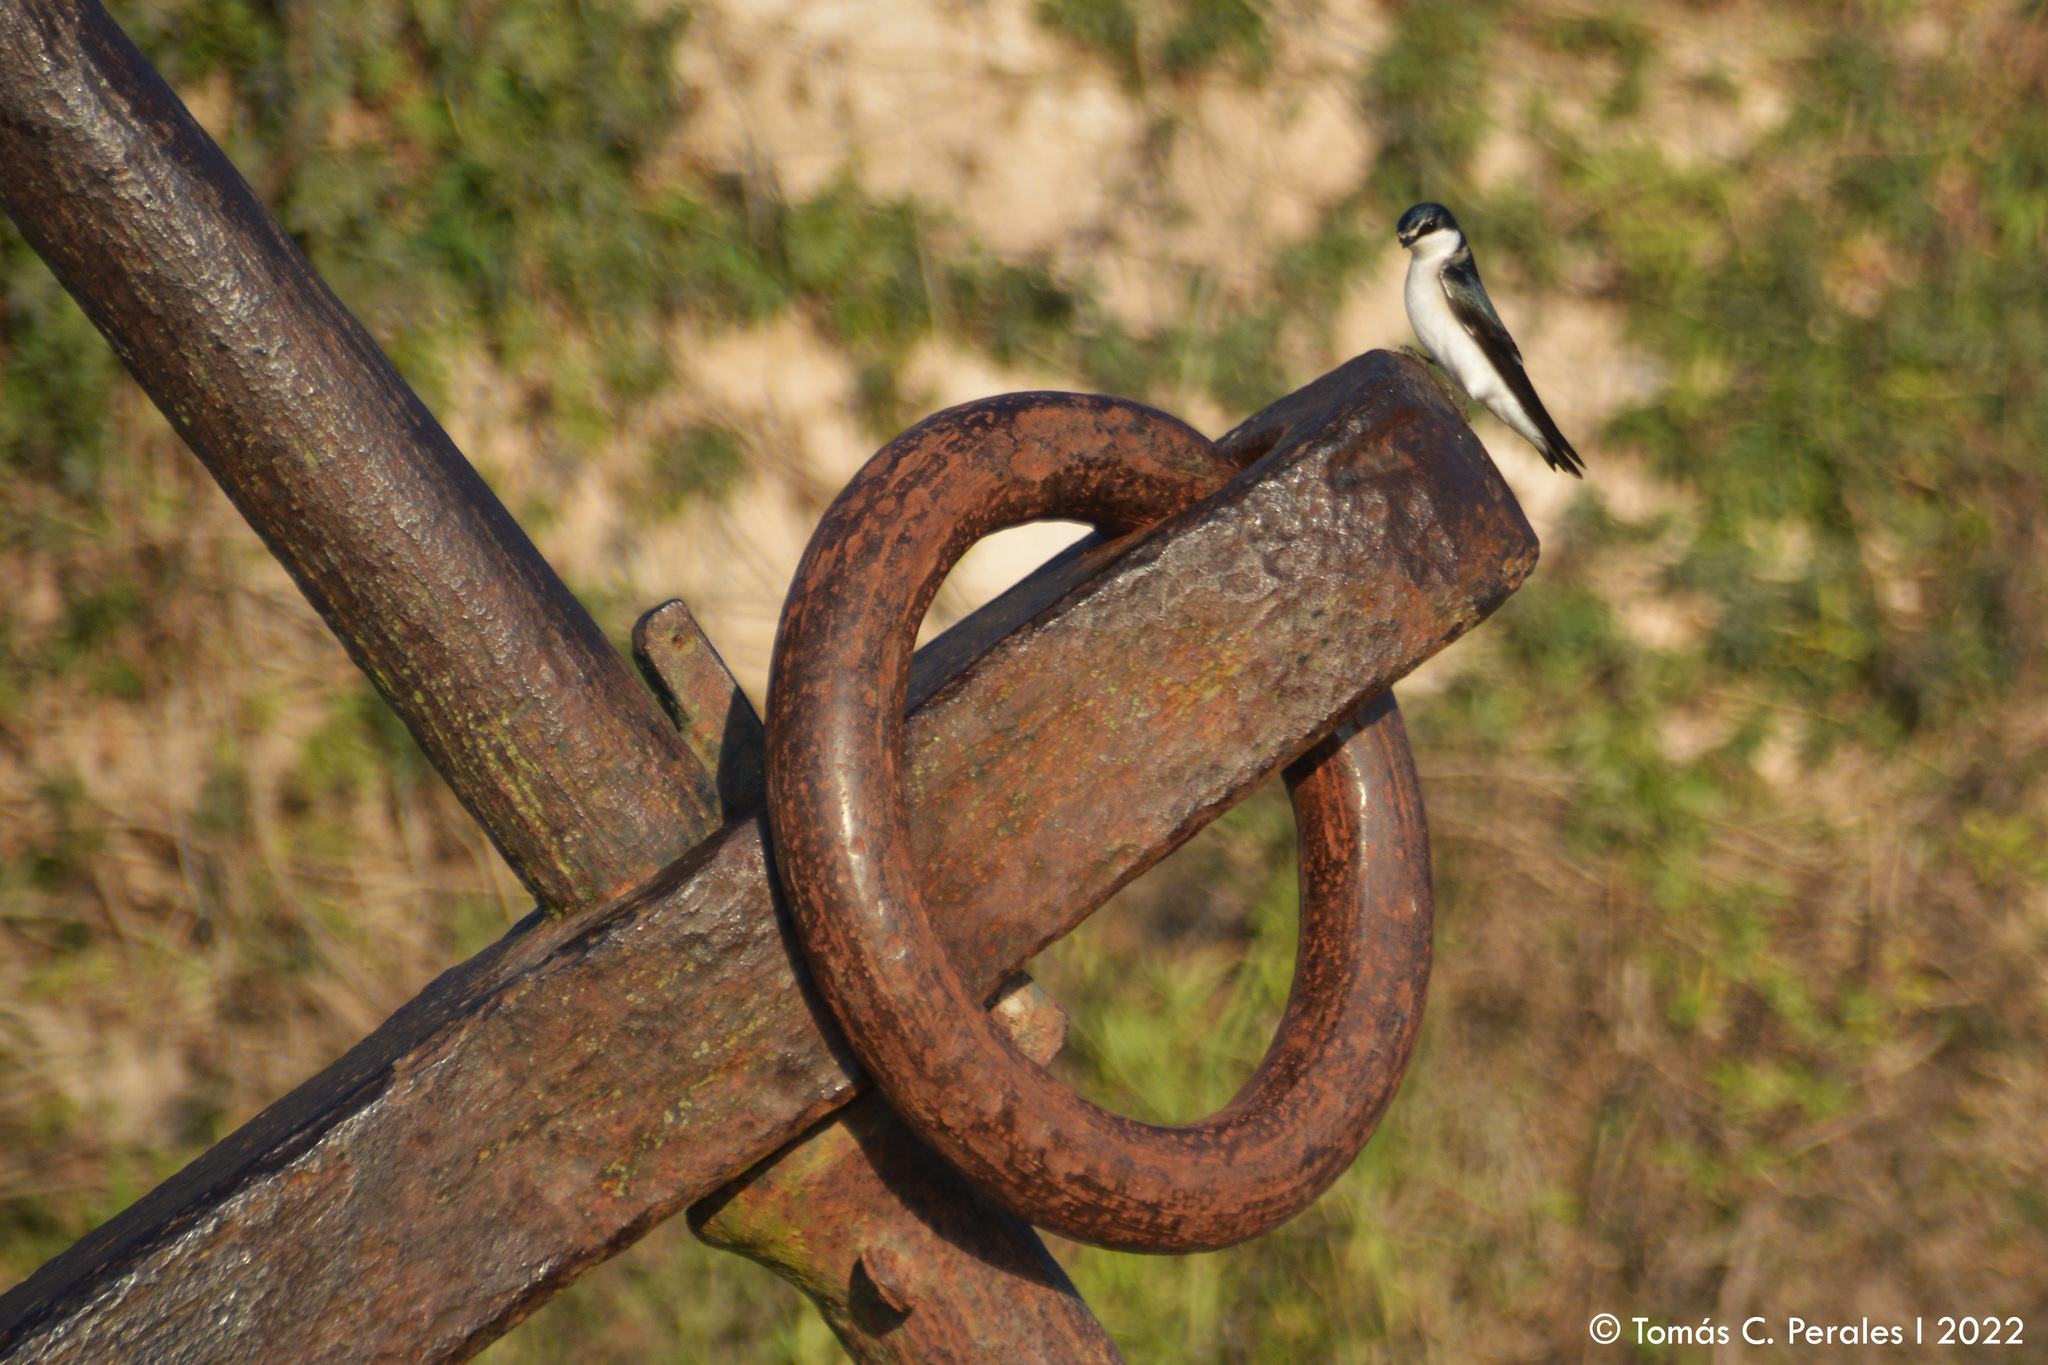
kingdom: Animalia
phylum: Chordata
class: Aves
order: Passeriformes
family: Hirundinidae
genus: Tachycineta
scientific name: Tachycineta leucorrhoa
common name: White-rumped swallow
